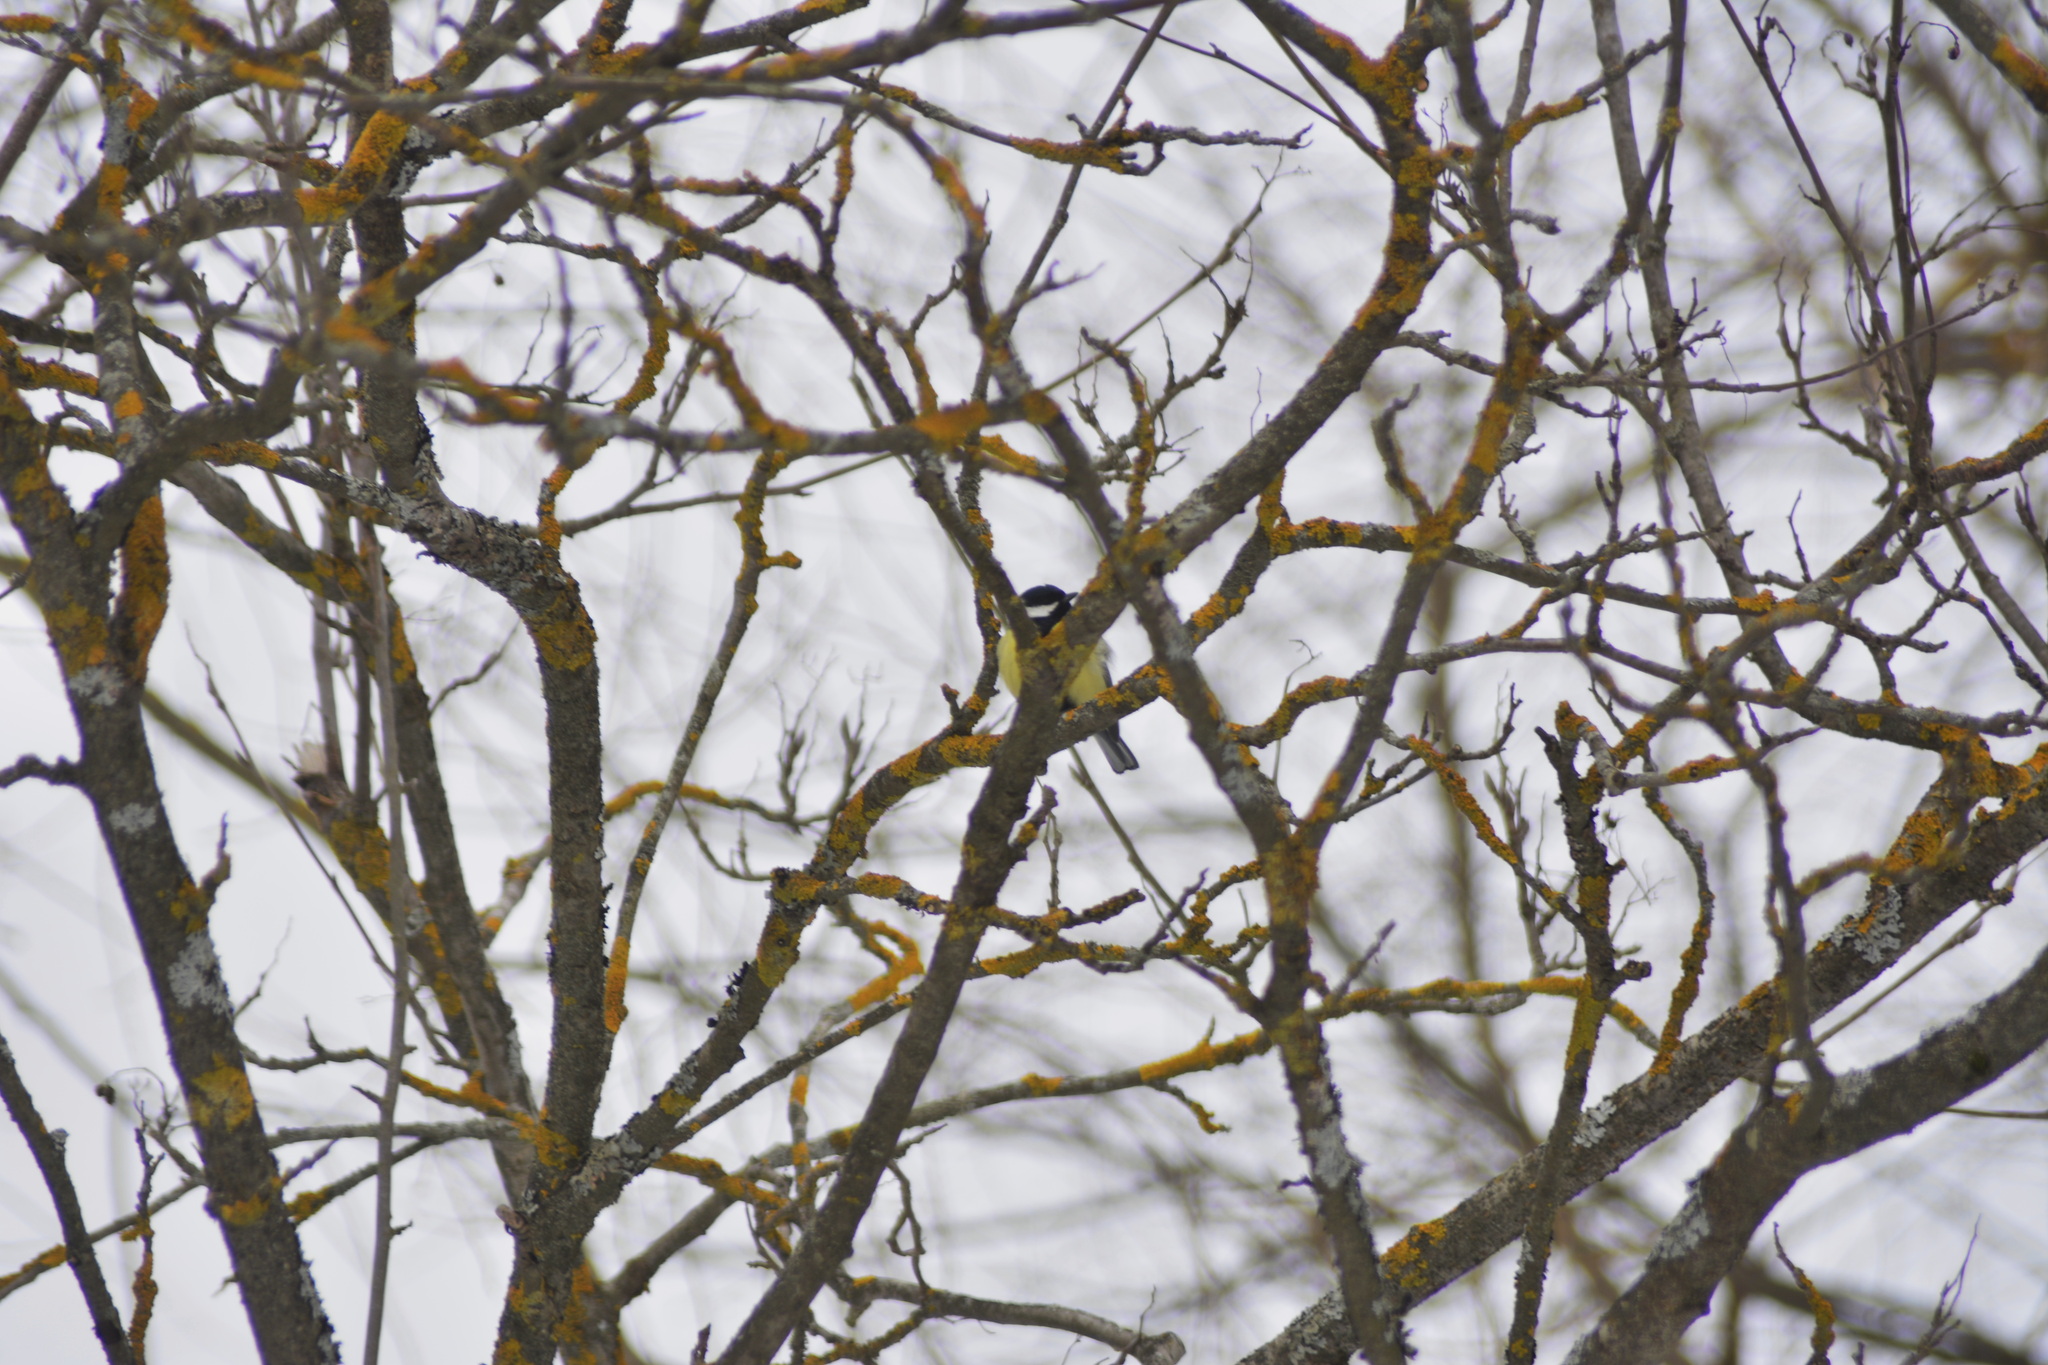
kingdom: Animalia
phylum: Chordata
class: Aves
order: Passeriformes
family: Paridae
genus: Parus
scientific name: Parus major
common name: Great tit
